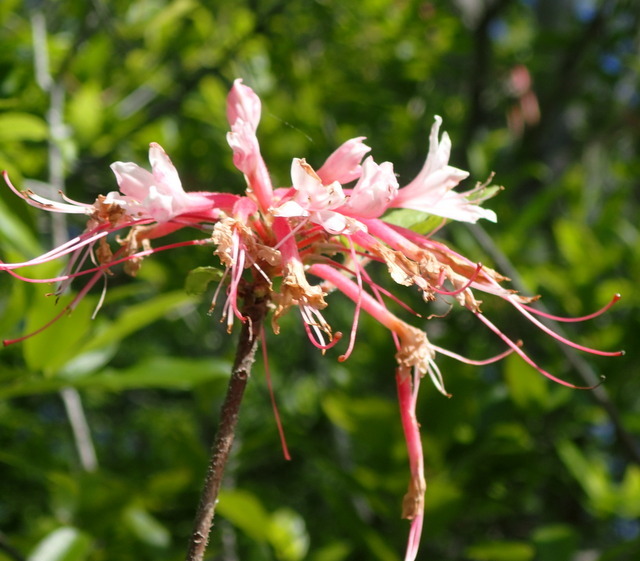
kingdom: Plantae
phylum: Tracheophyta
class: Magnoliopsida
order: Ericales
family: Ericaceae
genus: Rhododendron
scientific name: Rhododendron canescens
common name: Mountain azalea
